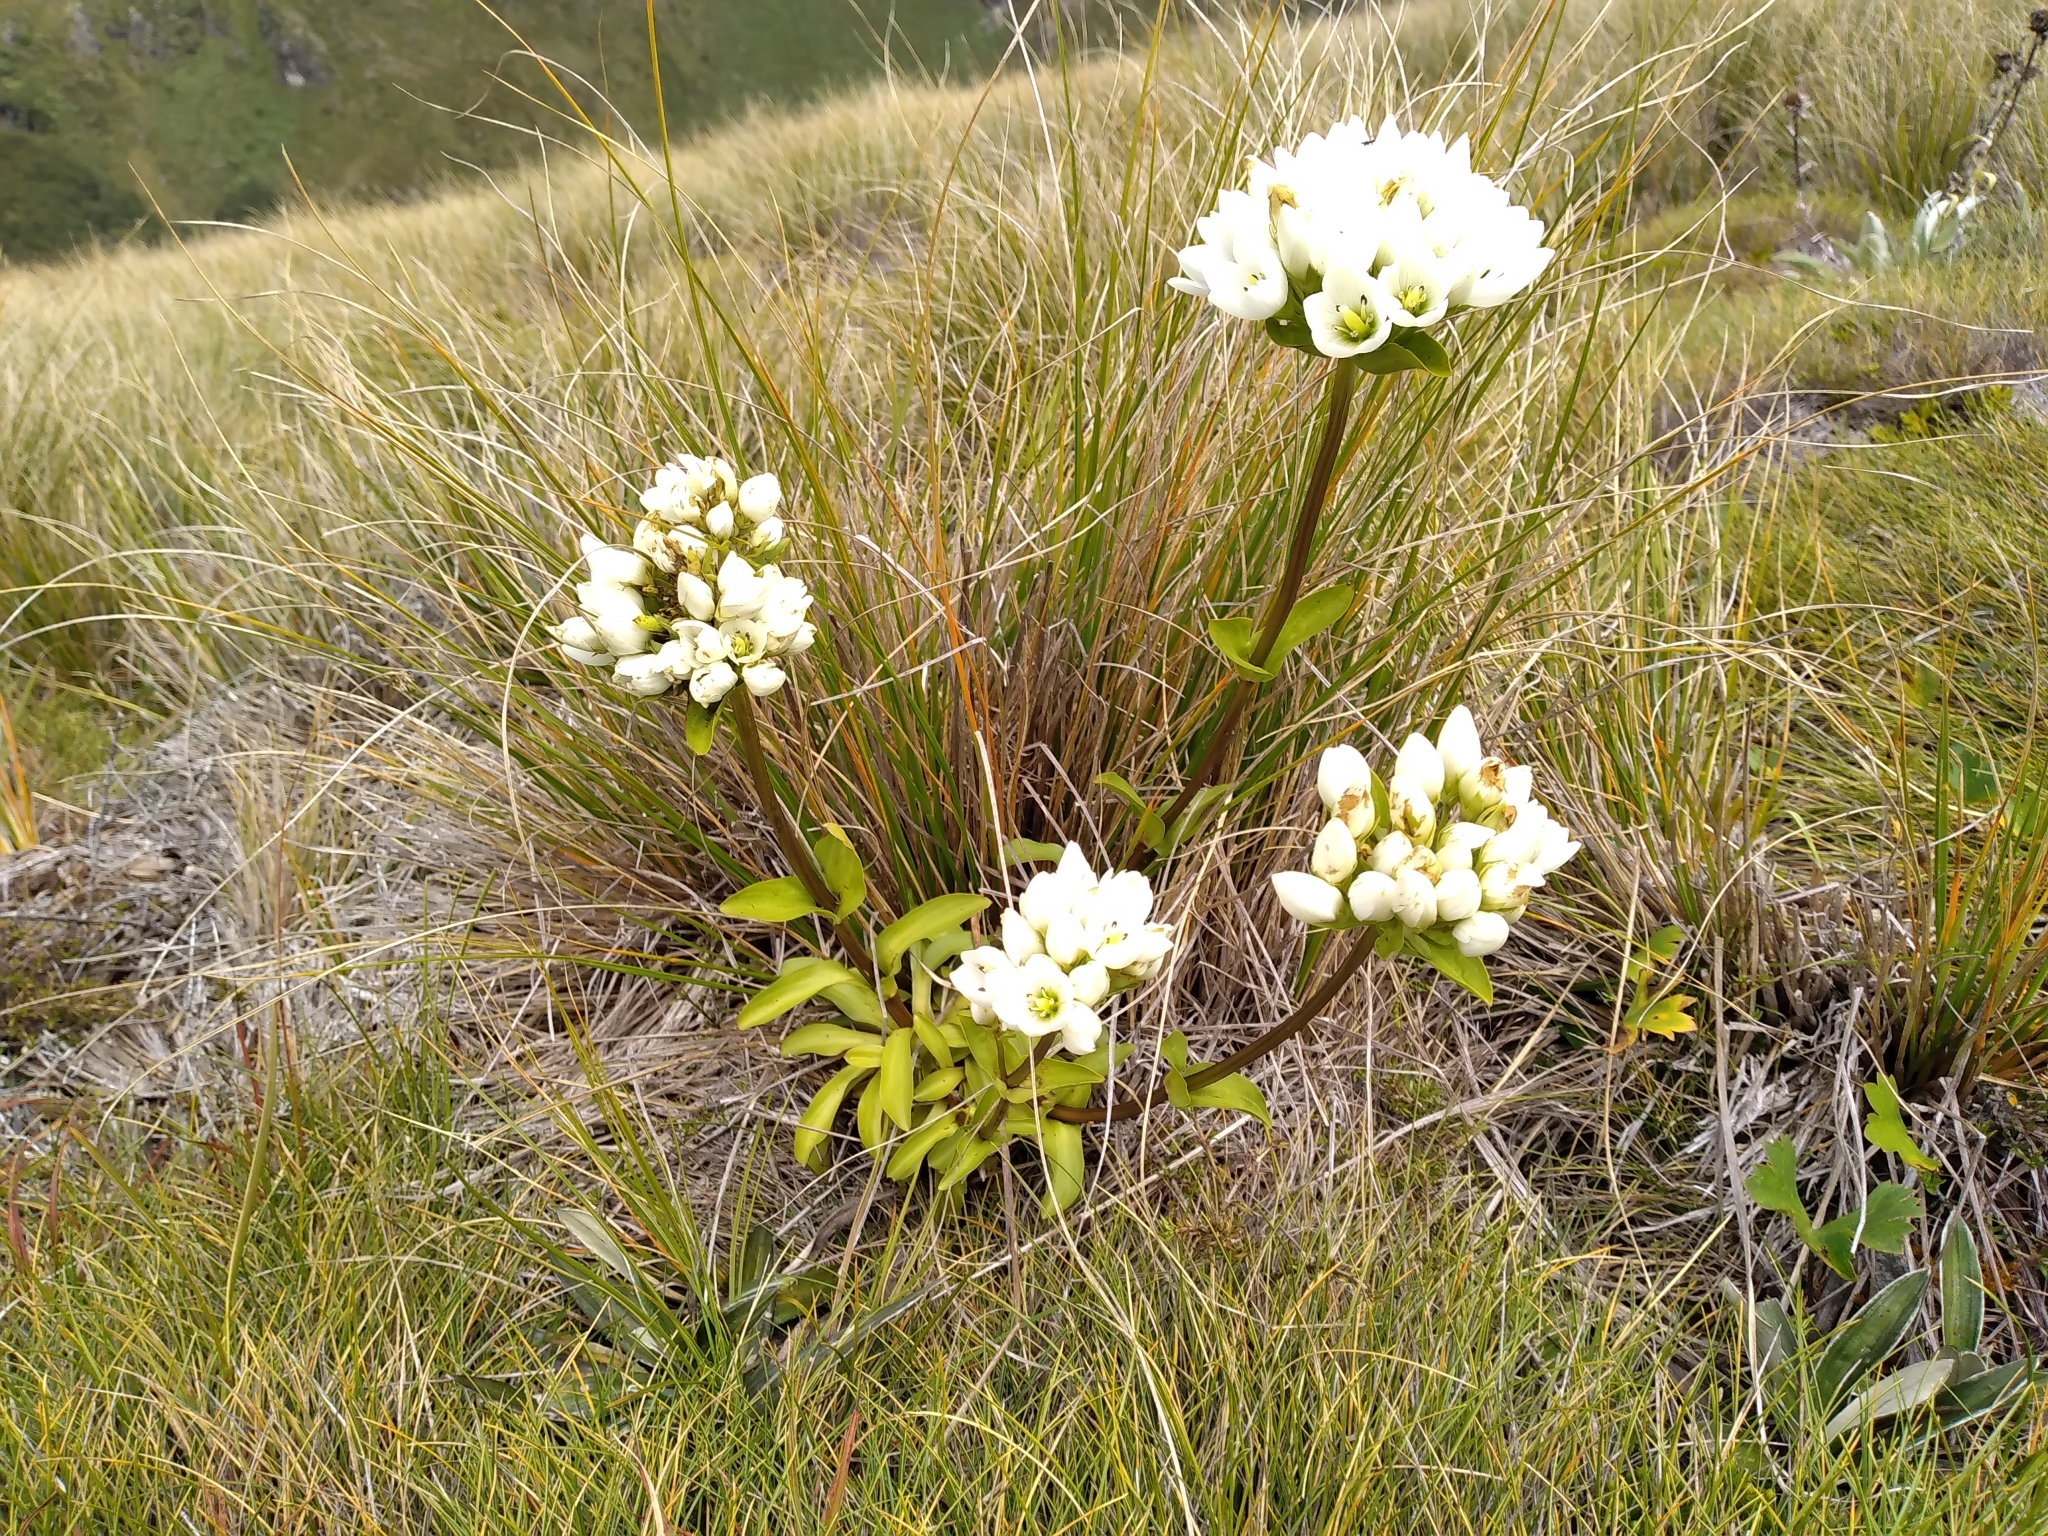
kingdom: Plantae
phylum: Tracheophyta
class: Magnoliopsida
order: Gentianales
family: Gentianaceae
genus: Gentianella
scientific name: Gentianella impressinervia
